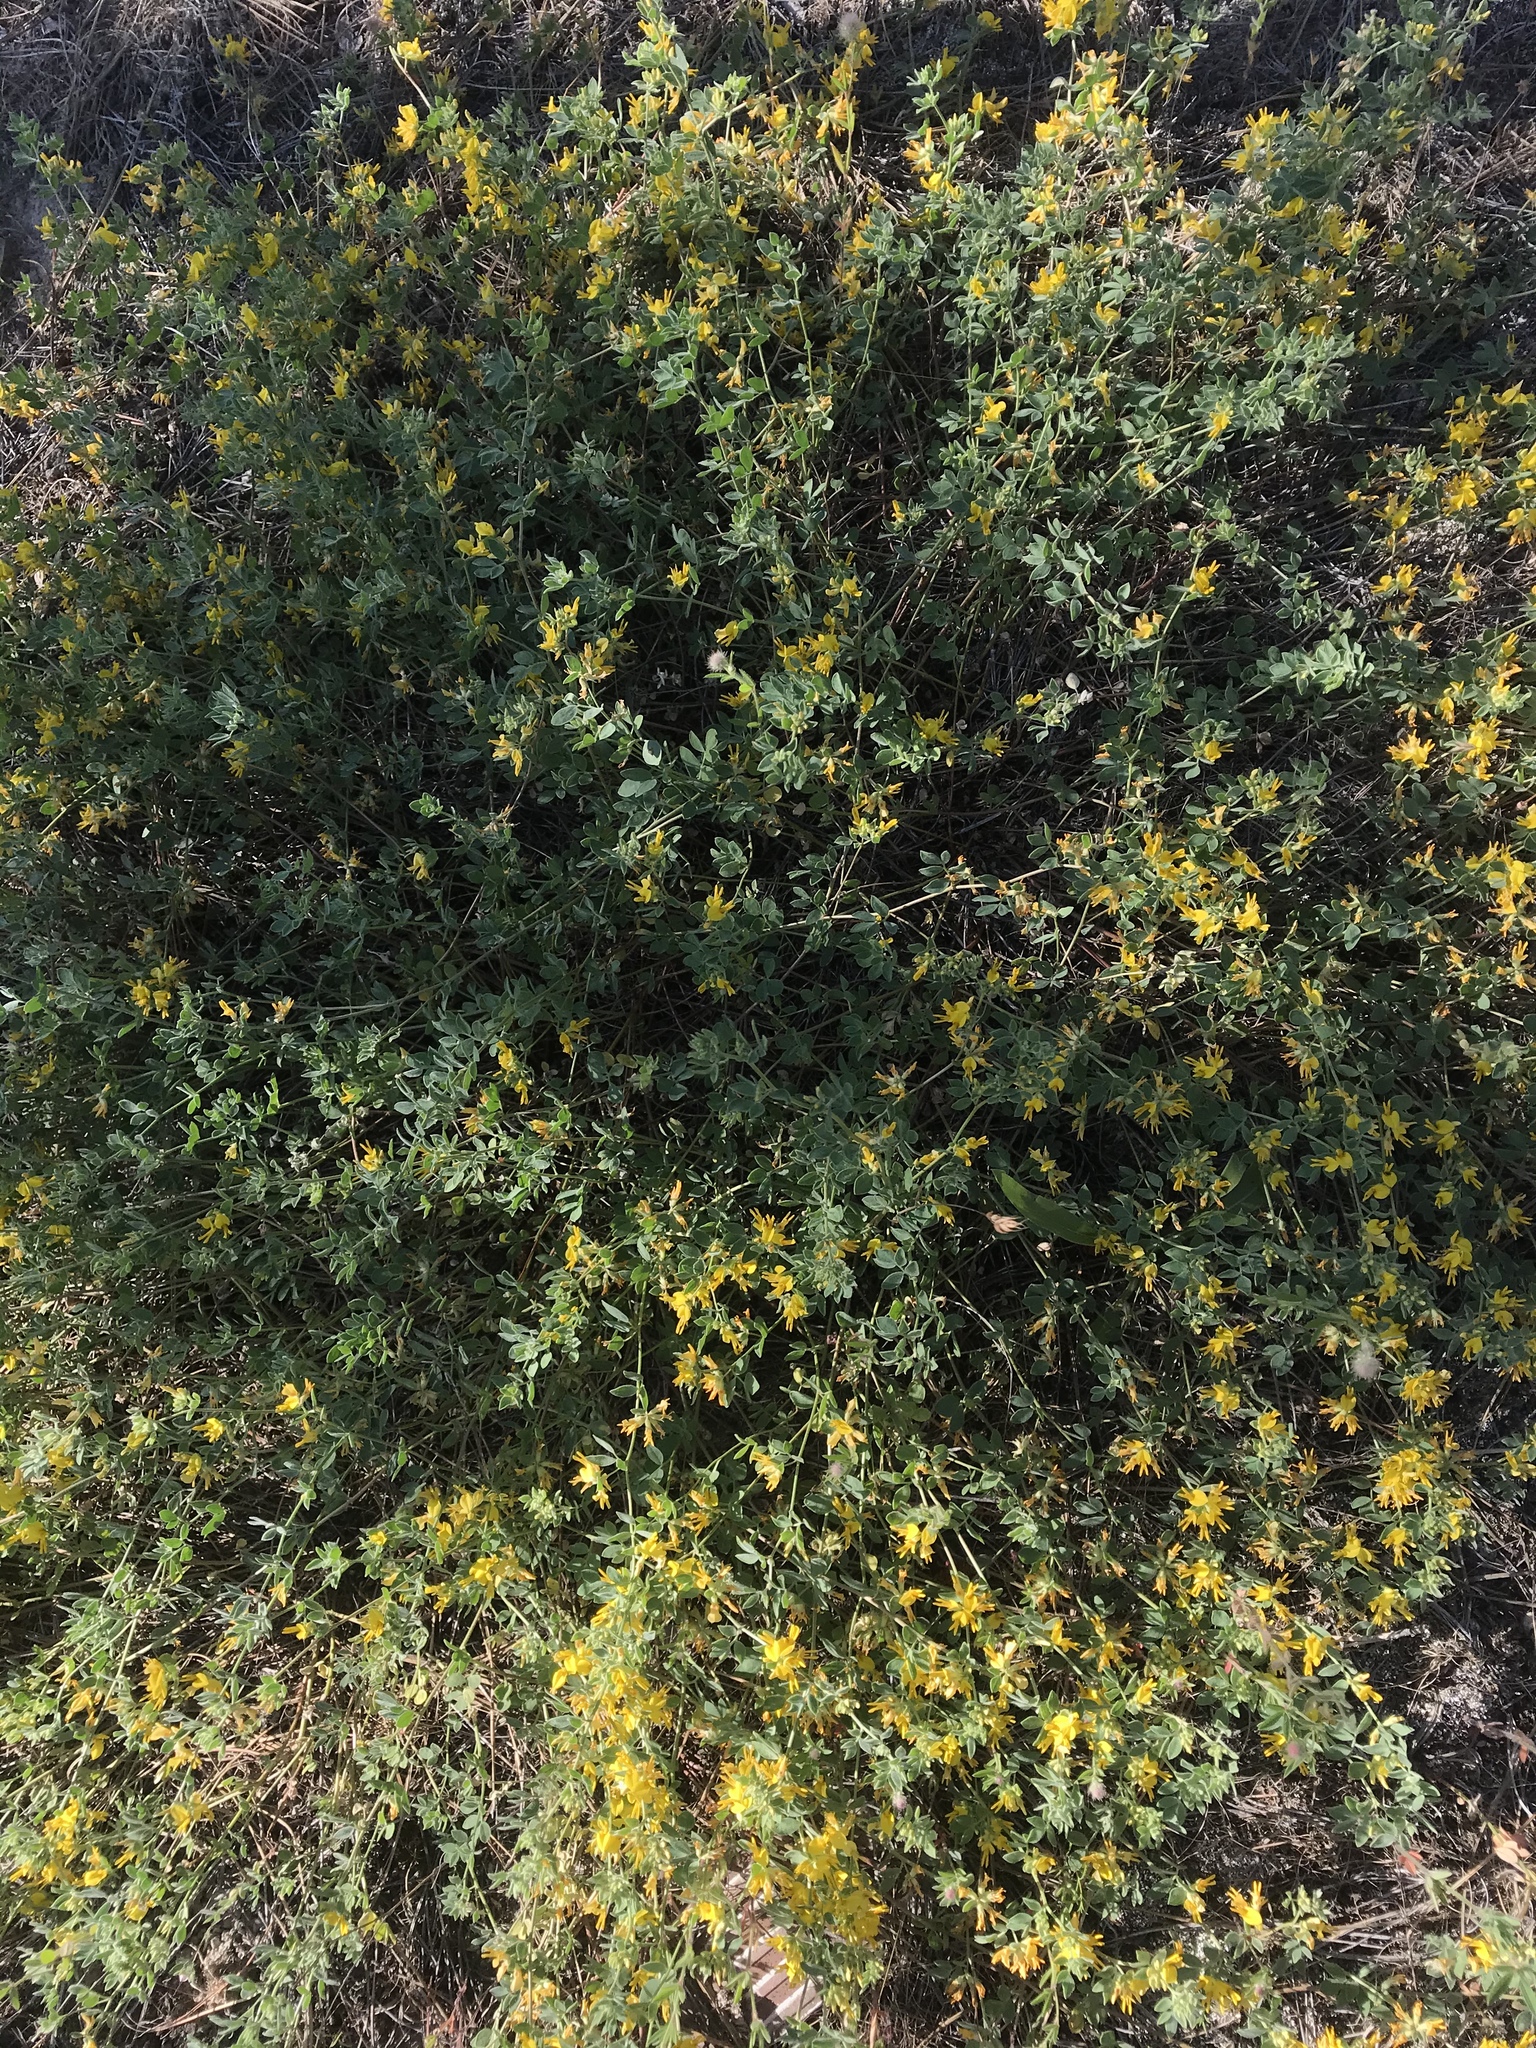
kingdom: Plantae
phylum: Tracheophyta
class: Magnoliopsida
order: Fabales
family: Fabaceae
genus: Acmispon
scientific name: Acmispon decumbens
